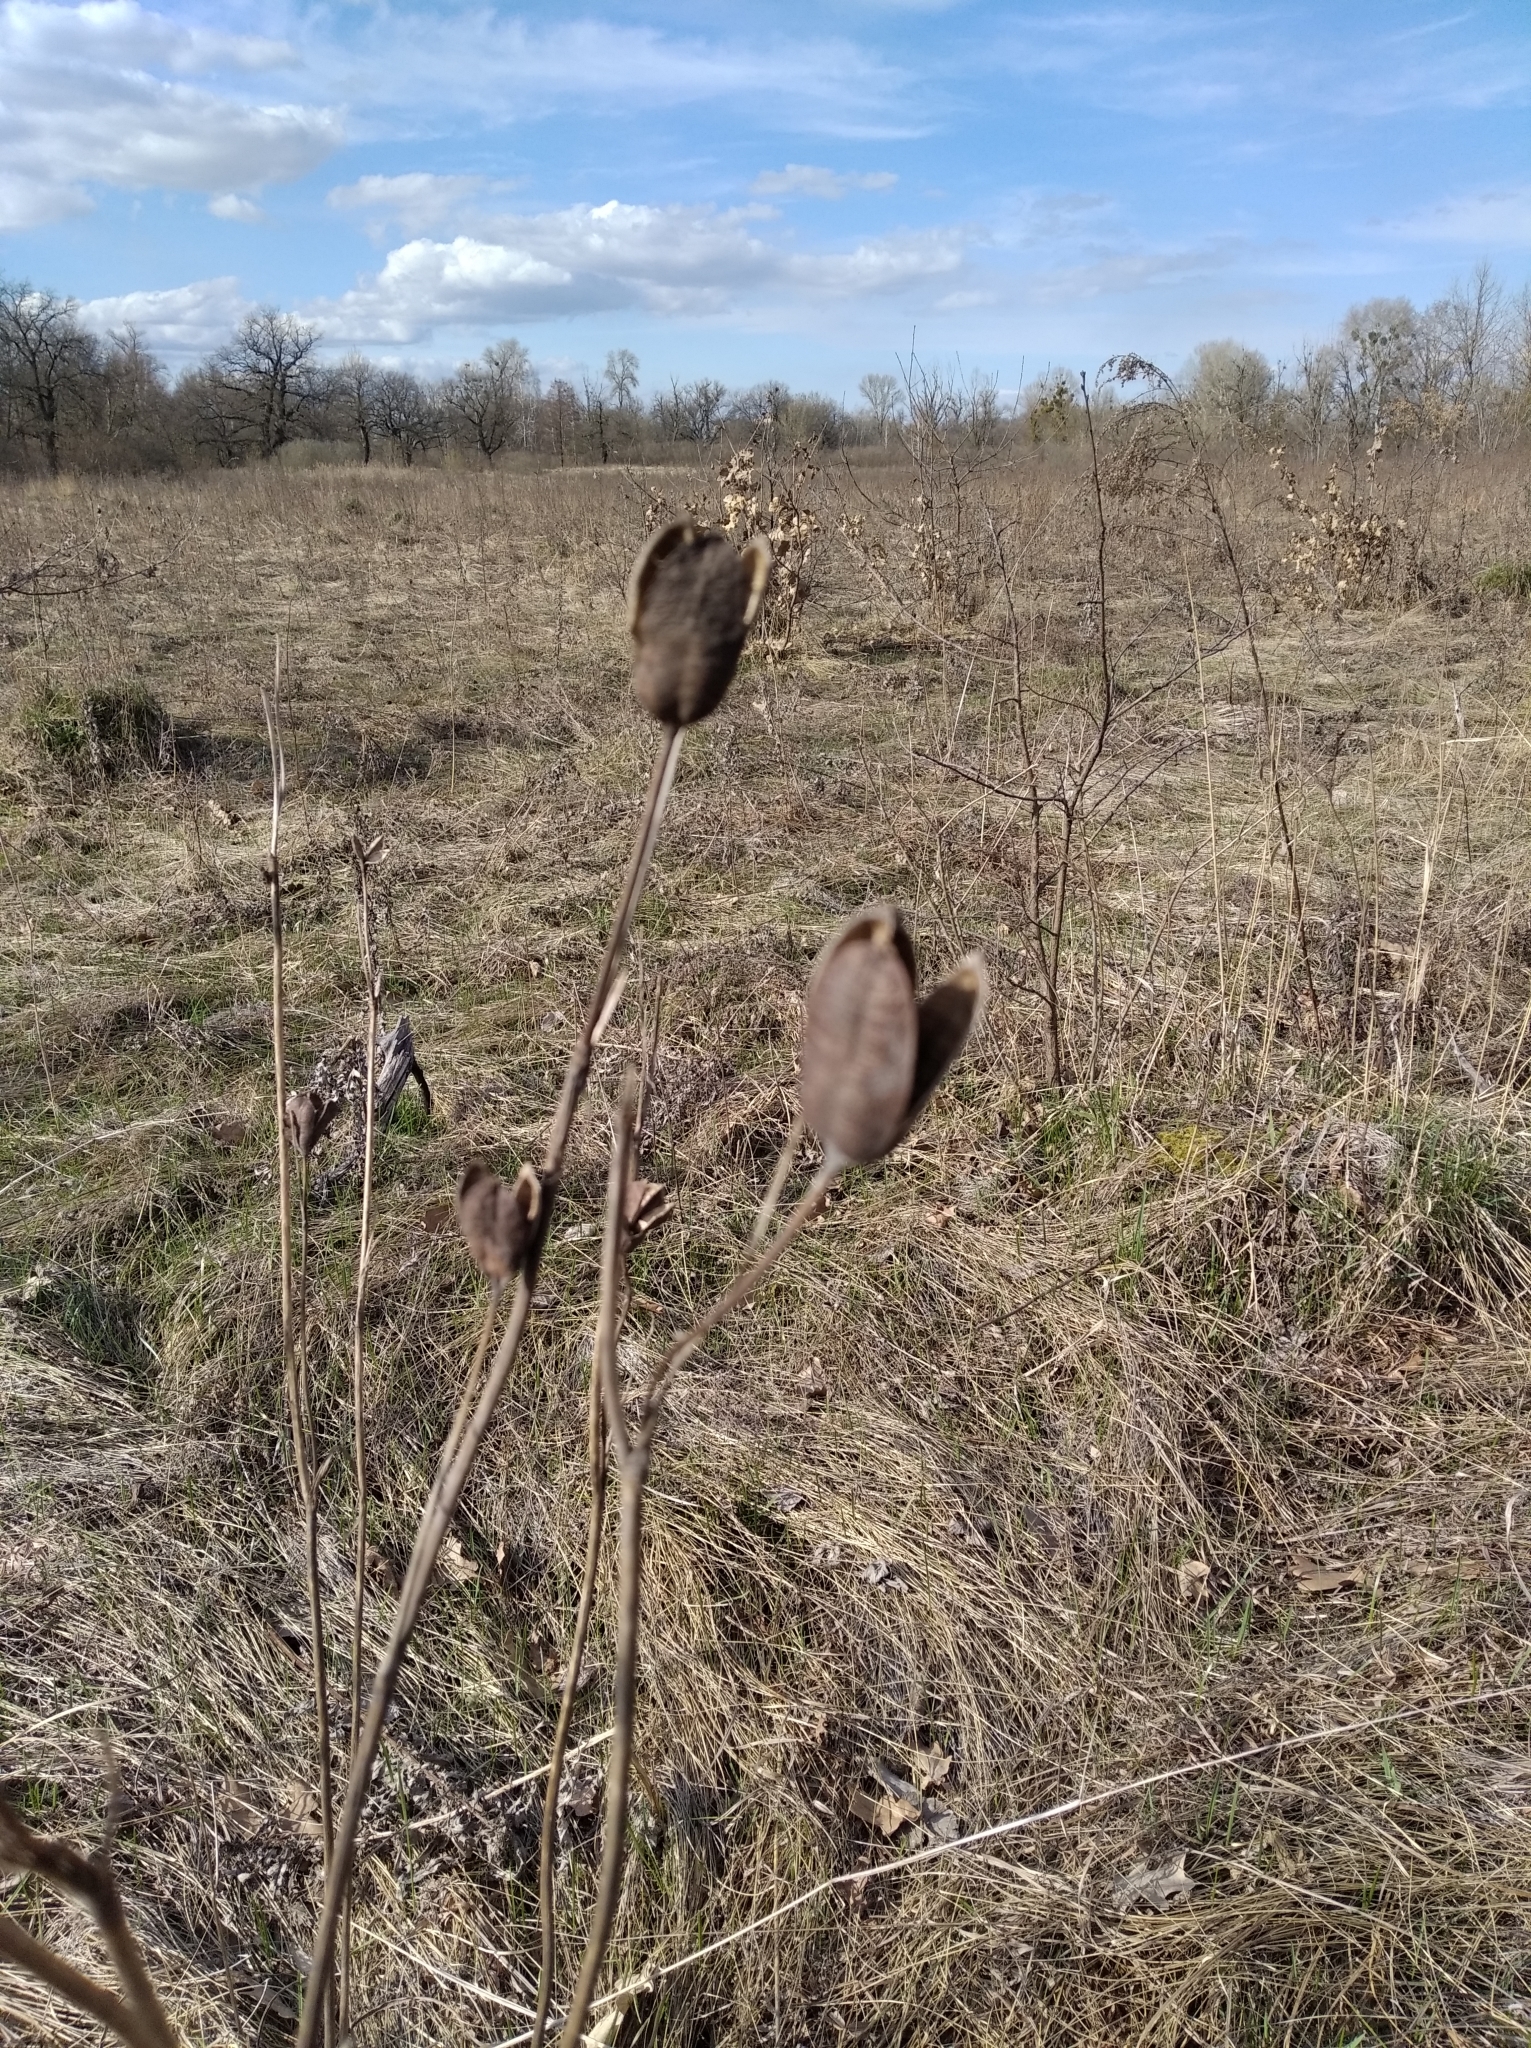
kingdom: Plantae
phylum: Tracheophyta
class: Liliopsida
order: Asparagales
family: Iridaceae
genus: Iris
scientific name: Iris sibirica
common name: Siberian iris
